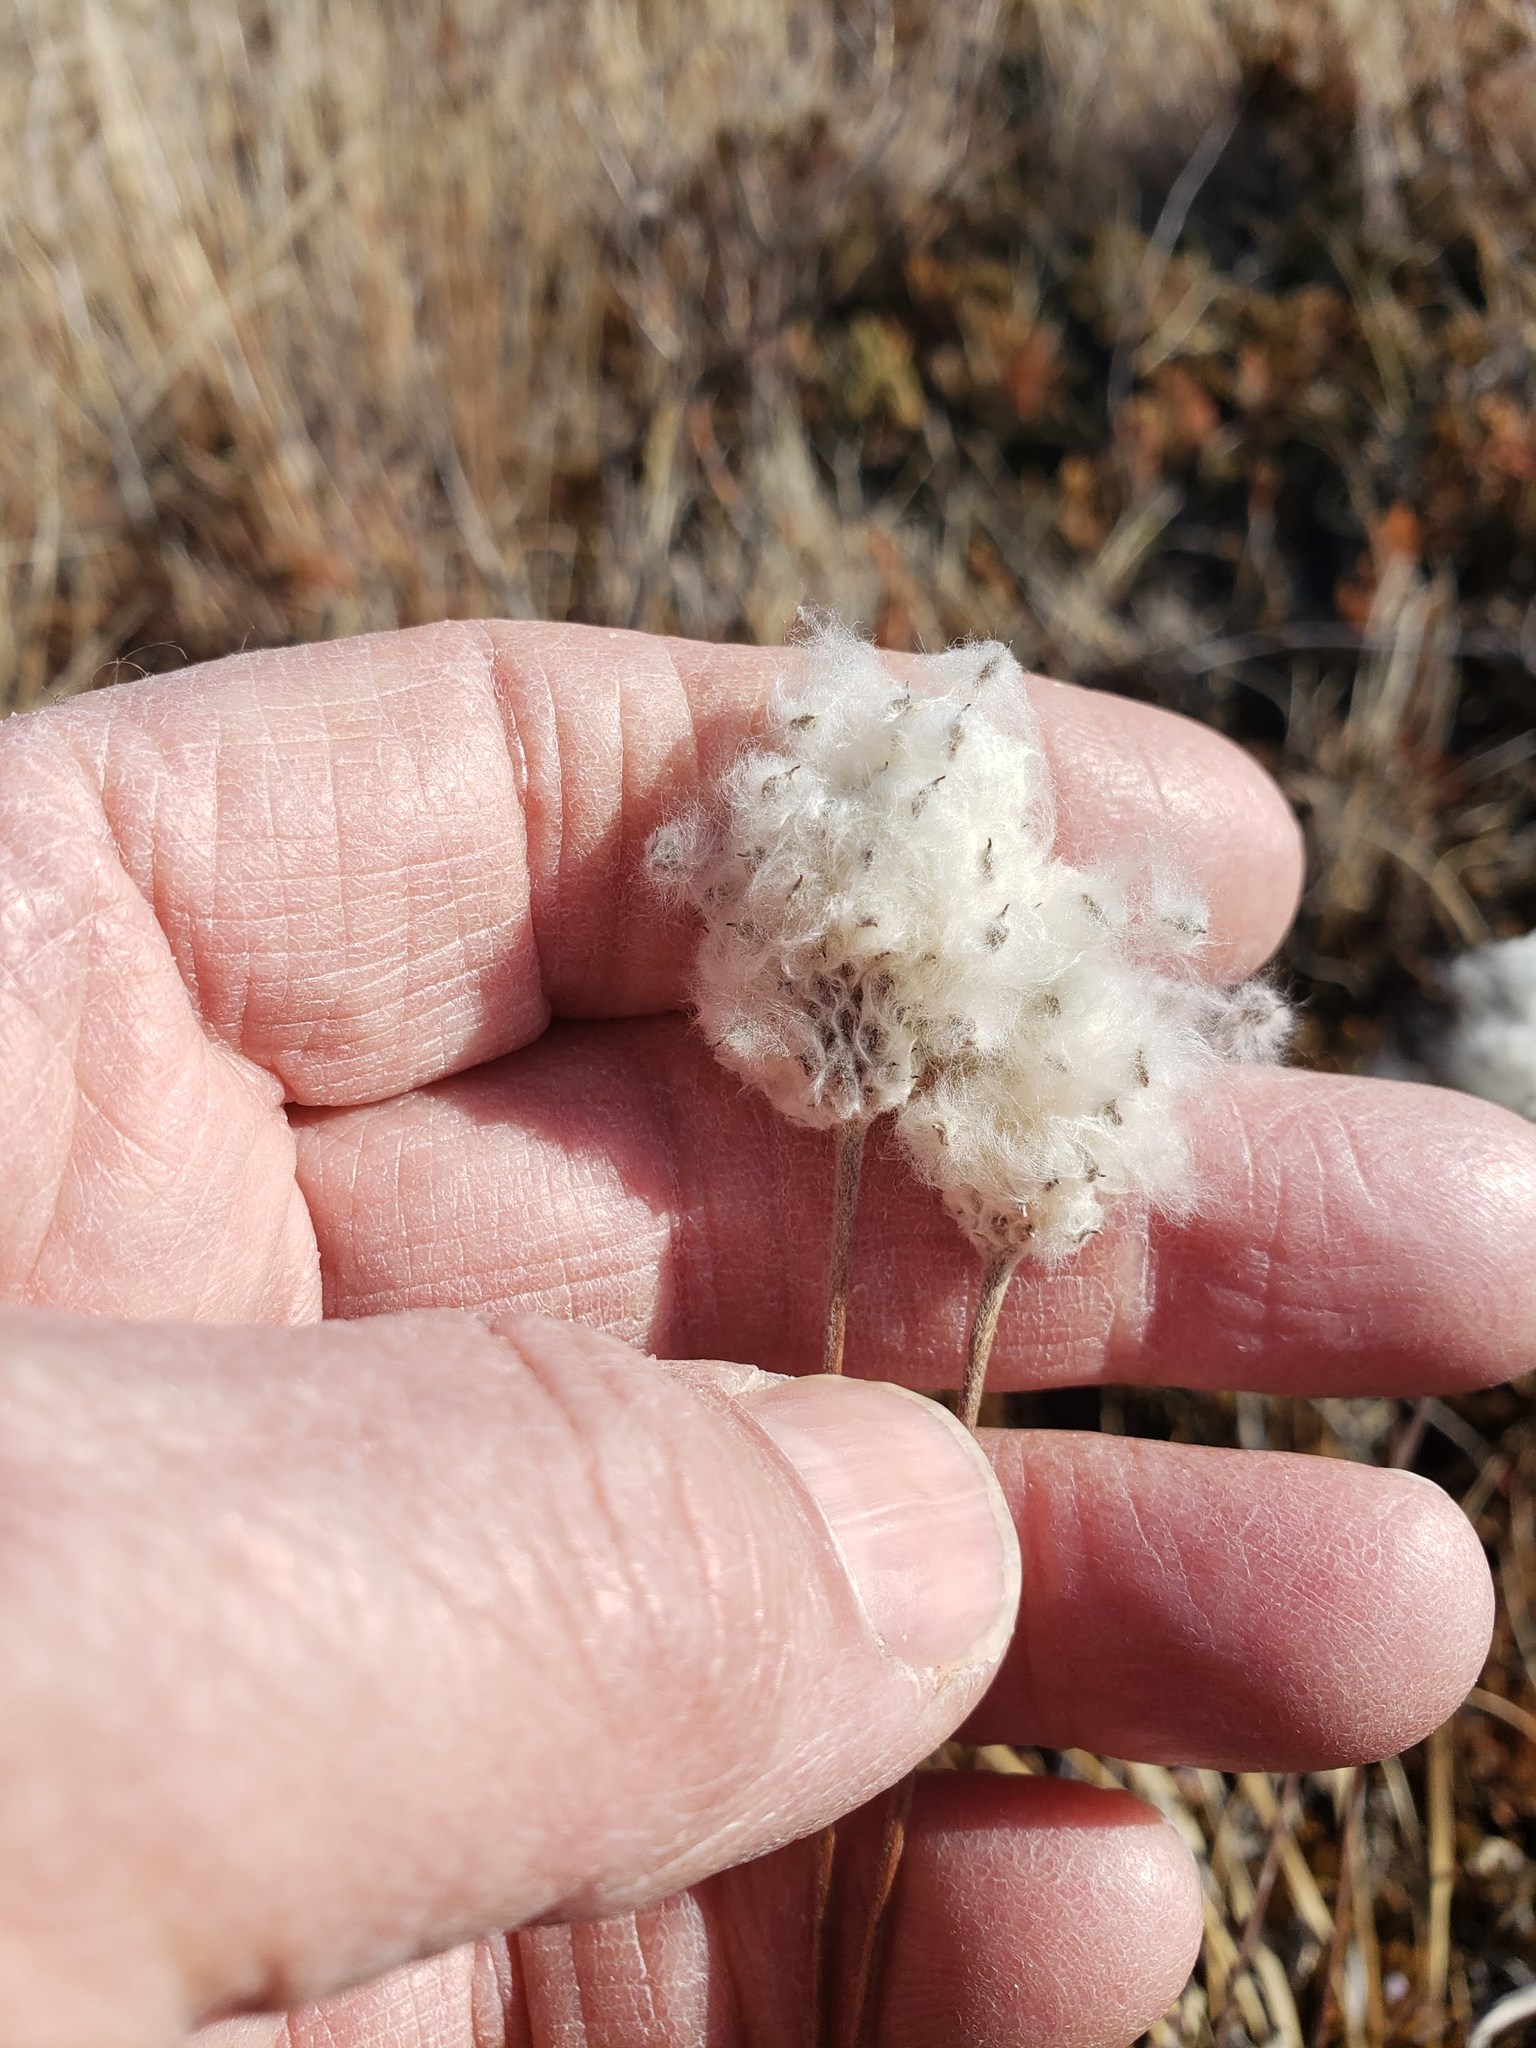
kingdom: Plantae
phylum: Tracheophyta
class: Magnoliopsida
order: Ranunculales
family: Ranunculaceae
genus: Anemone
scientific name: Anemone cylindrica
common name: Candle anemone
